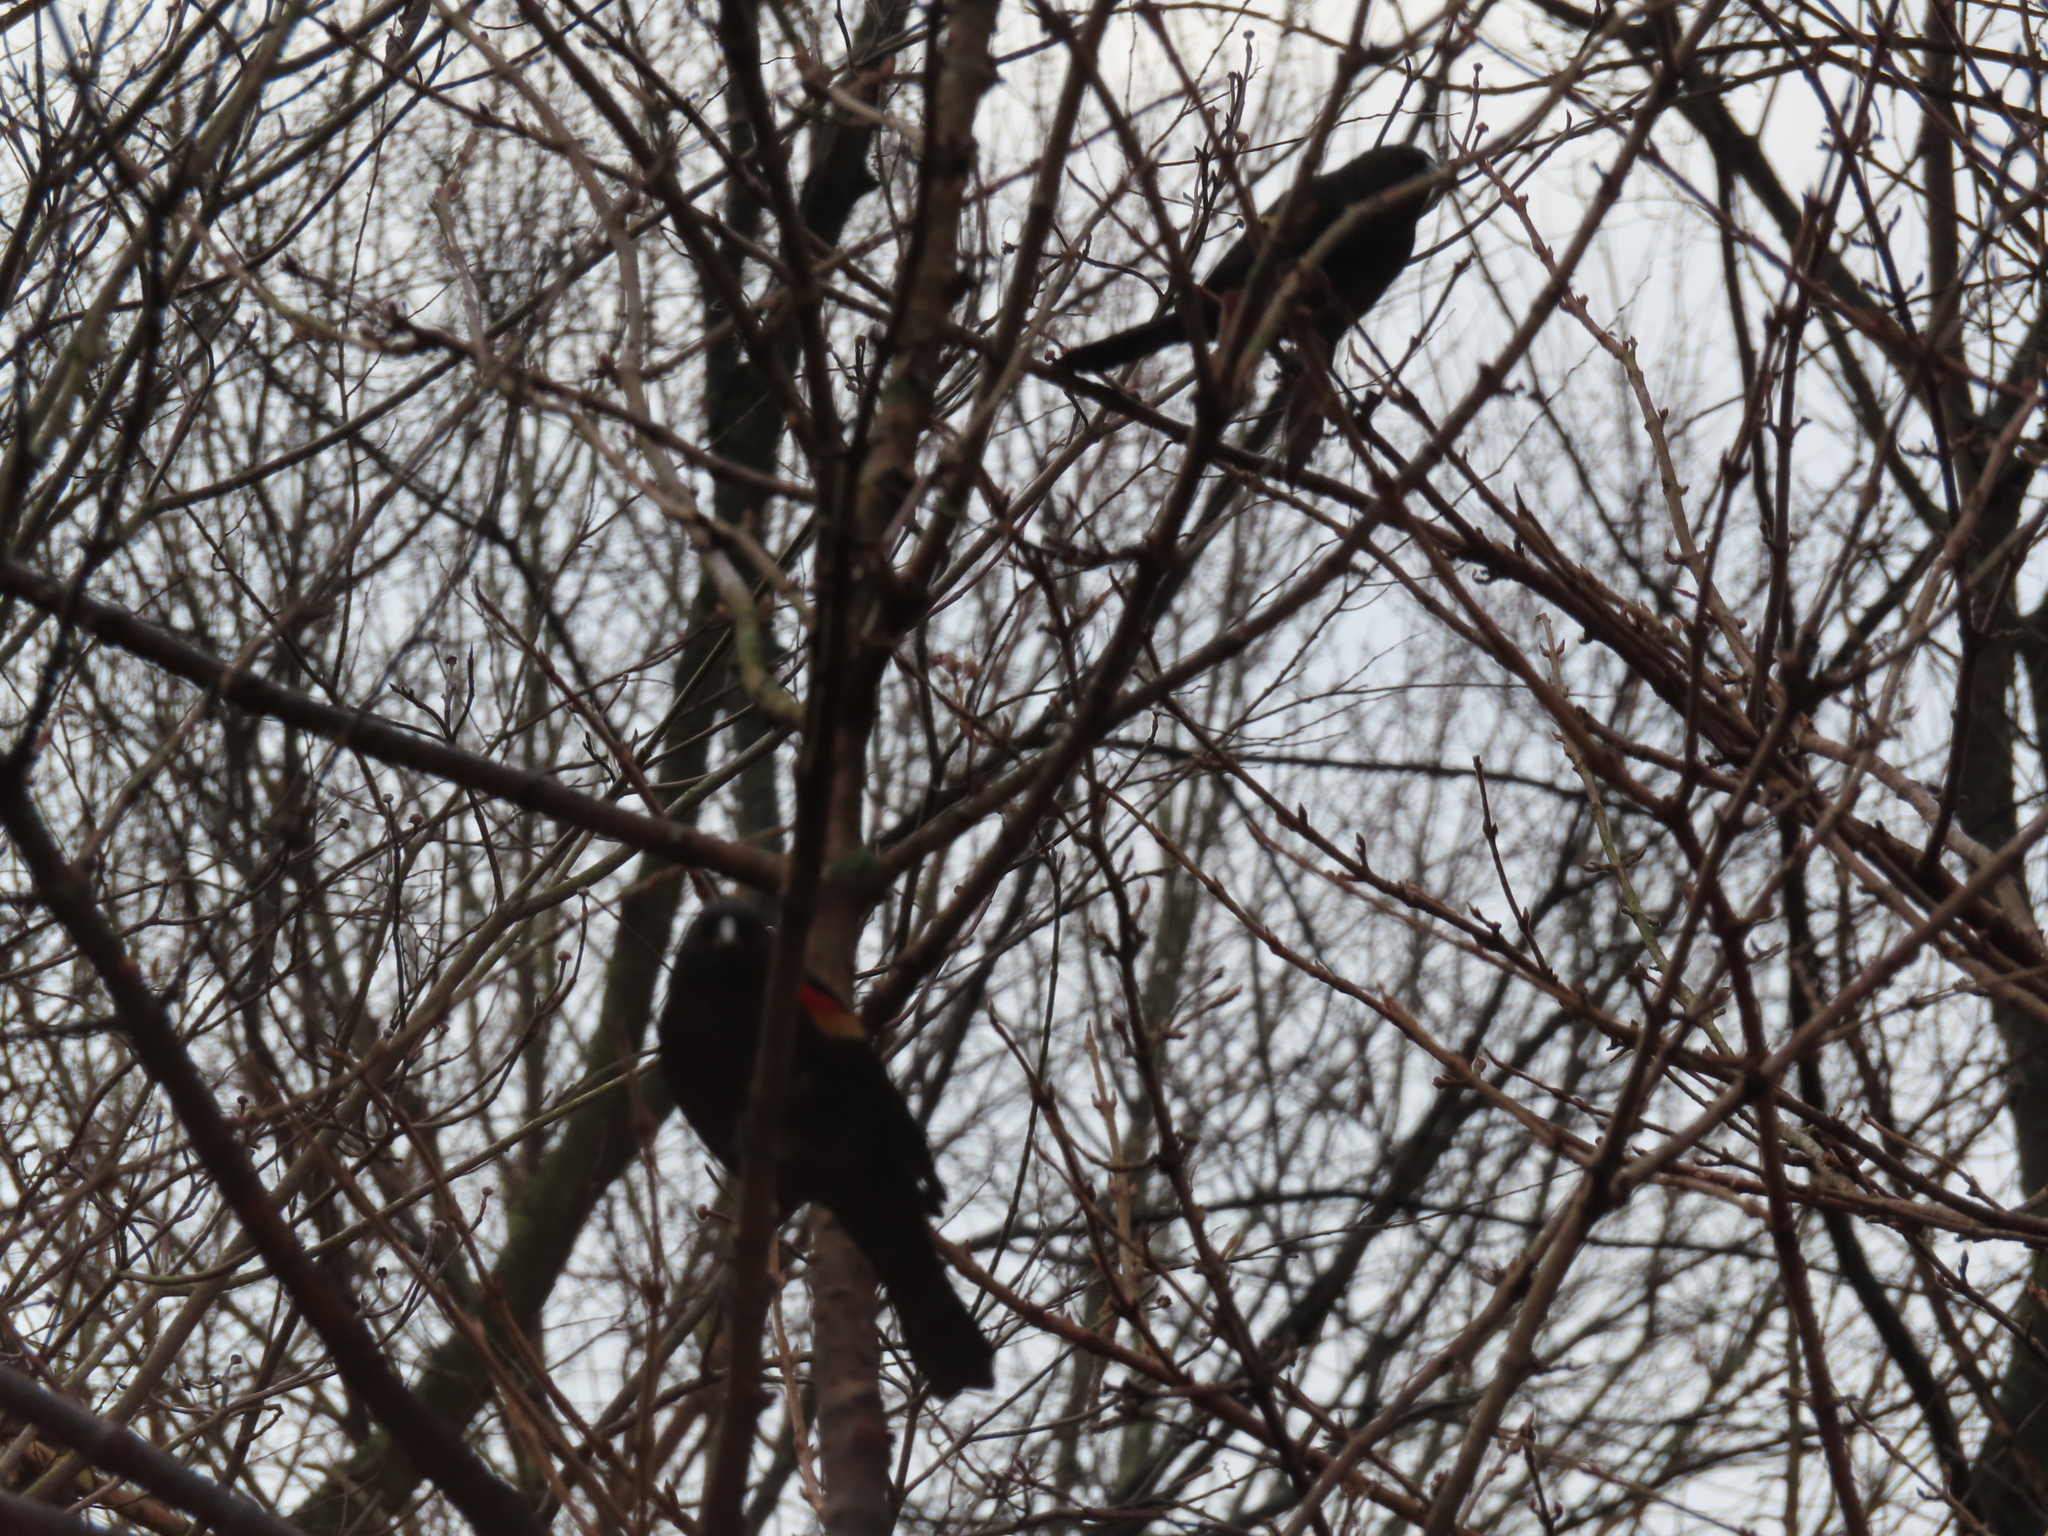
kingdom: Animalia
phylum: Chordata
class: Aves
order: Passeriformes
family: Icteridae
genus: Agelaius
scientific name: Agelaius phoeniceus
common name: Red-winged blackbird
